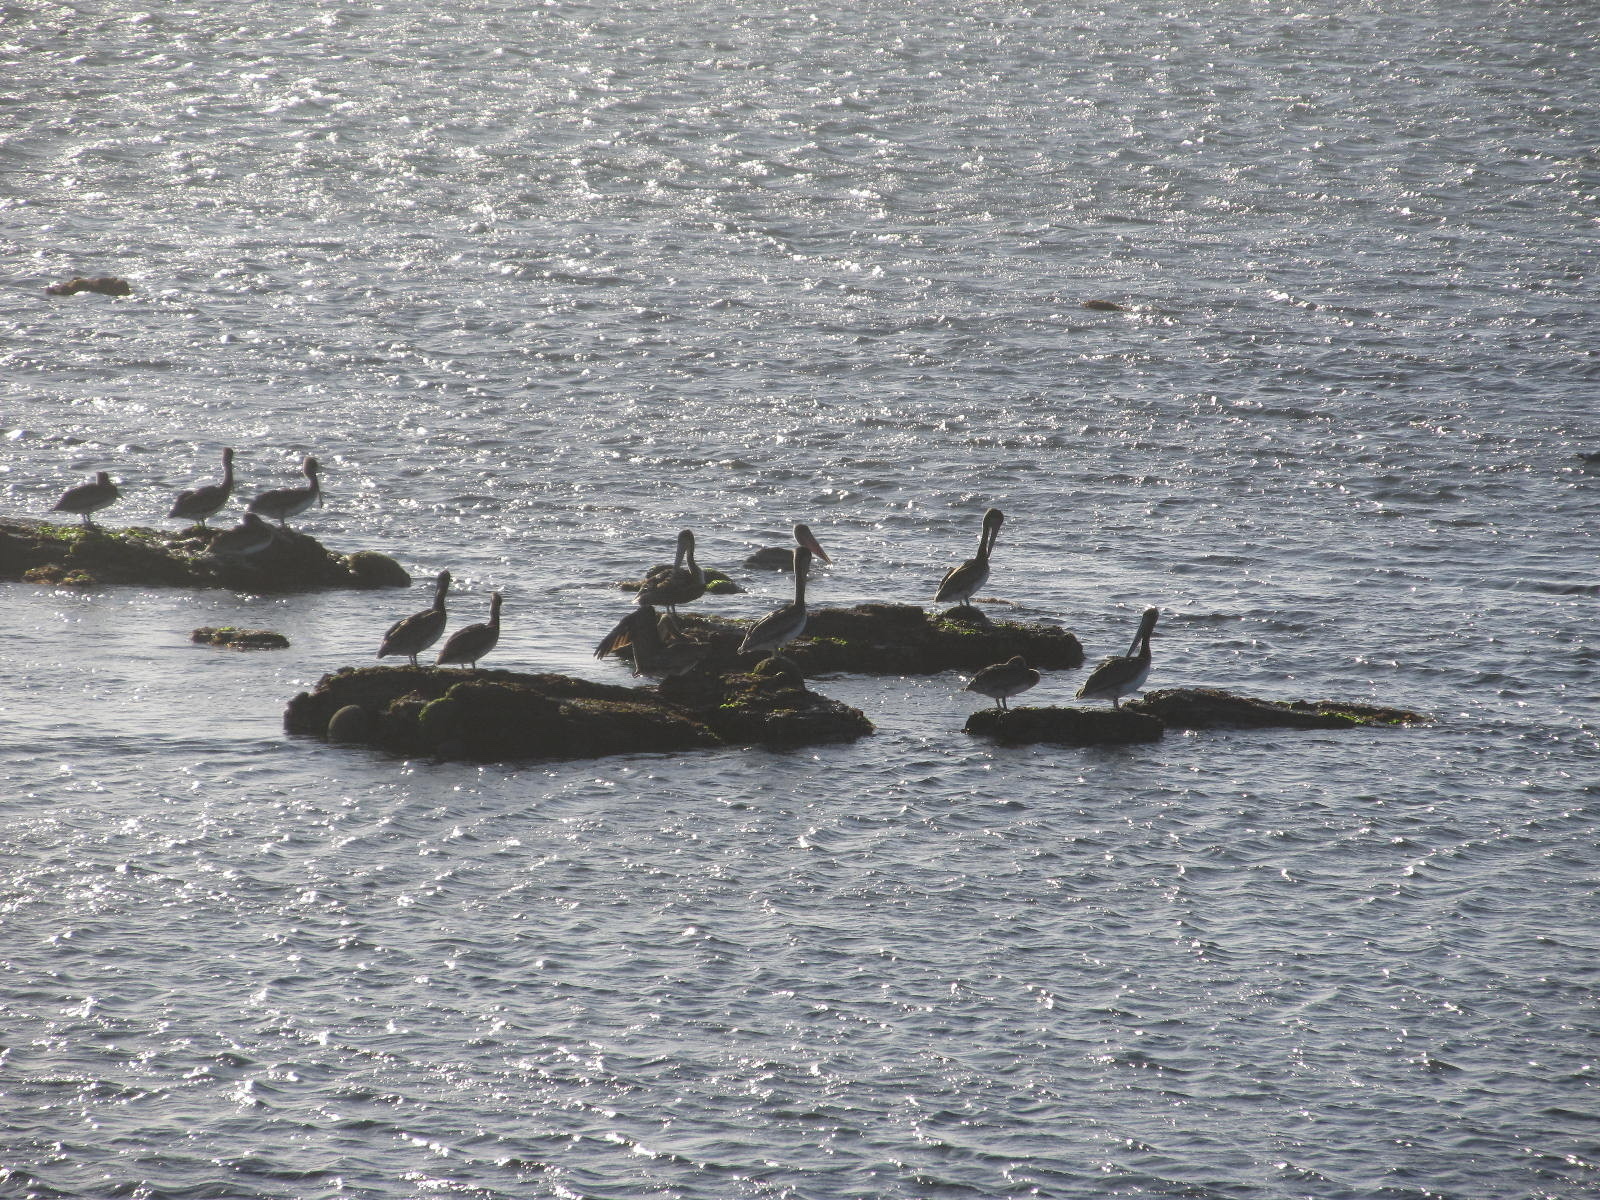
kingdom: Animalia
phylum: Chordata
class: Aves
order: Pelecaniformes
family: Pelecanidae
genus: Pelecanus
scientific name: Pelecanus occidentalis
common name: Brown pelican
